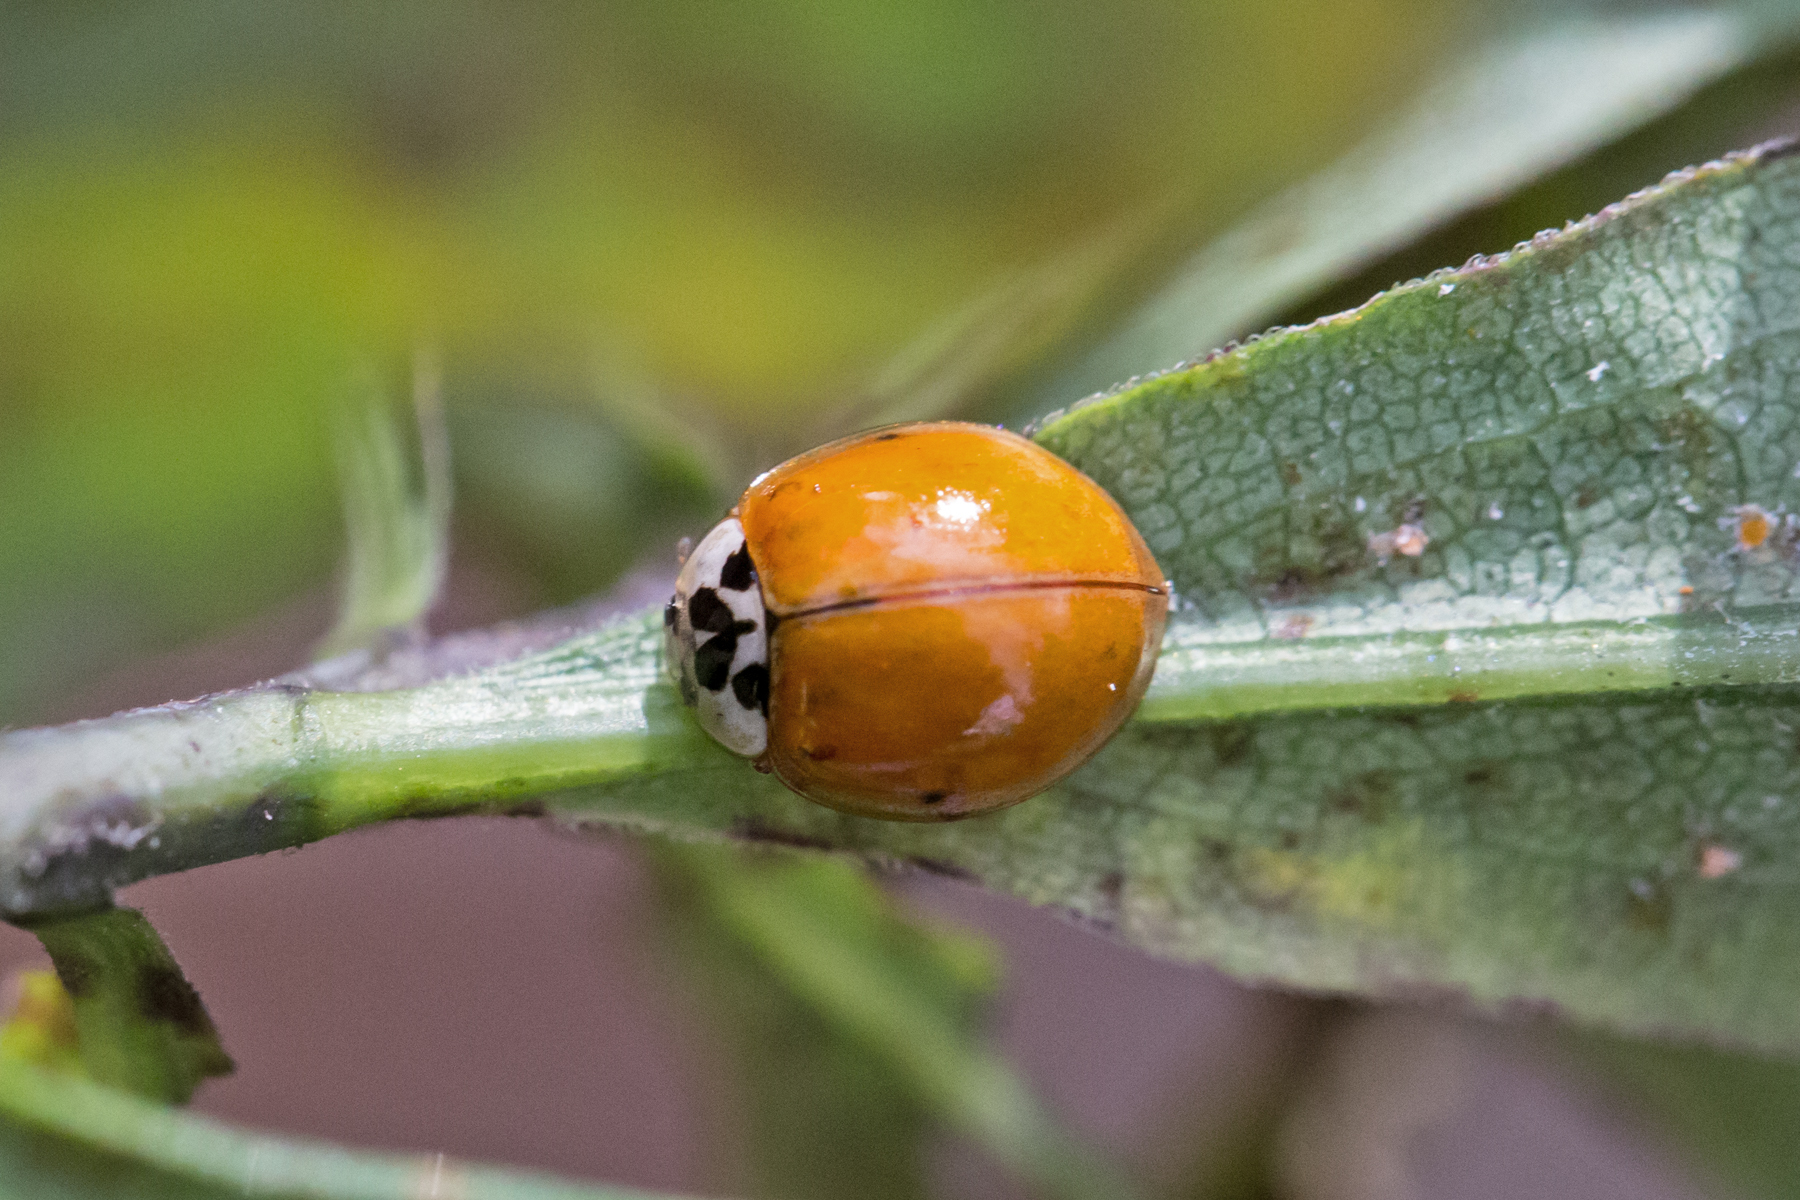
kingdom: Animalia
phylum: Arthropoda
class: Insecta
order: Coleoptera
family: Coccinellidae
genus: Harmonia
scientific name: Harmonia axyridis
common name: Harlequin ladybird
